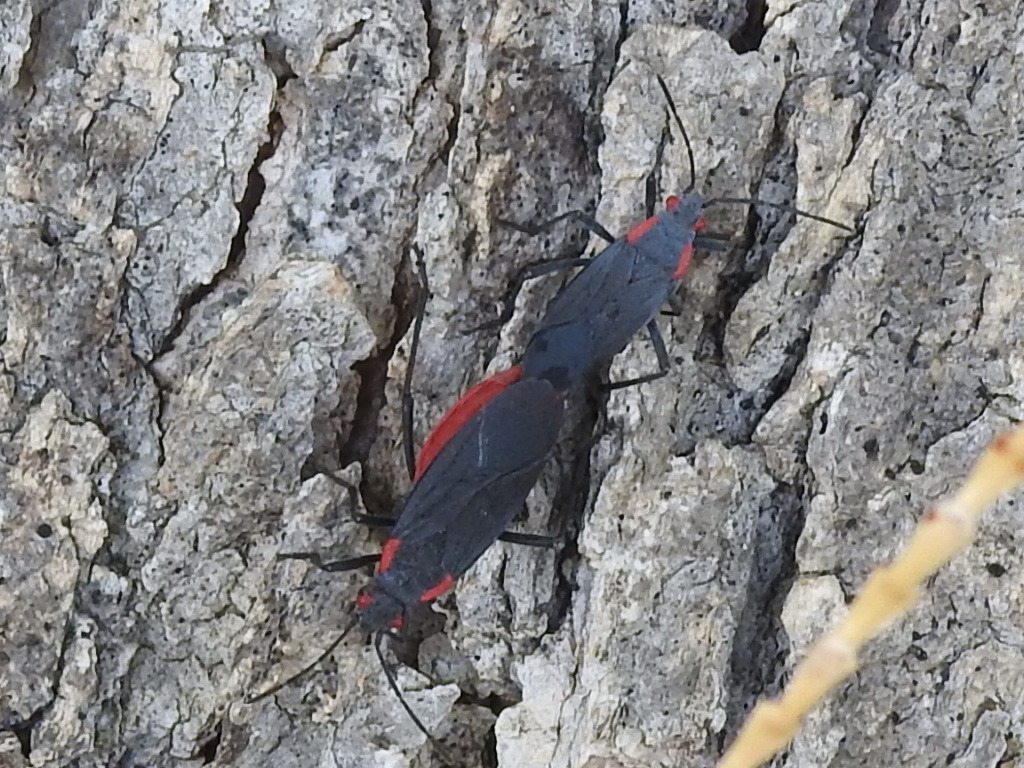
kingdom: Animalia
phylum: Arthropoda
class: Insecta
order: Hemiptera
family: Rhopalidae
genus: Jadera
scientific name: Jadera haematoloma
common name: Red-shouldered bug
